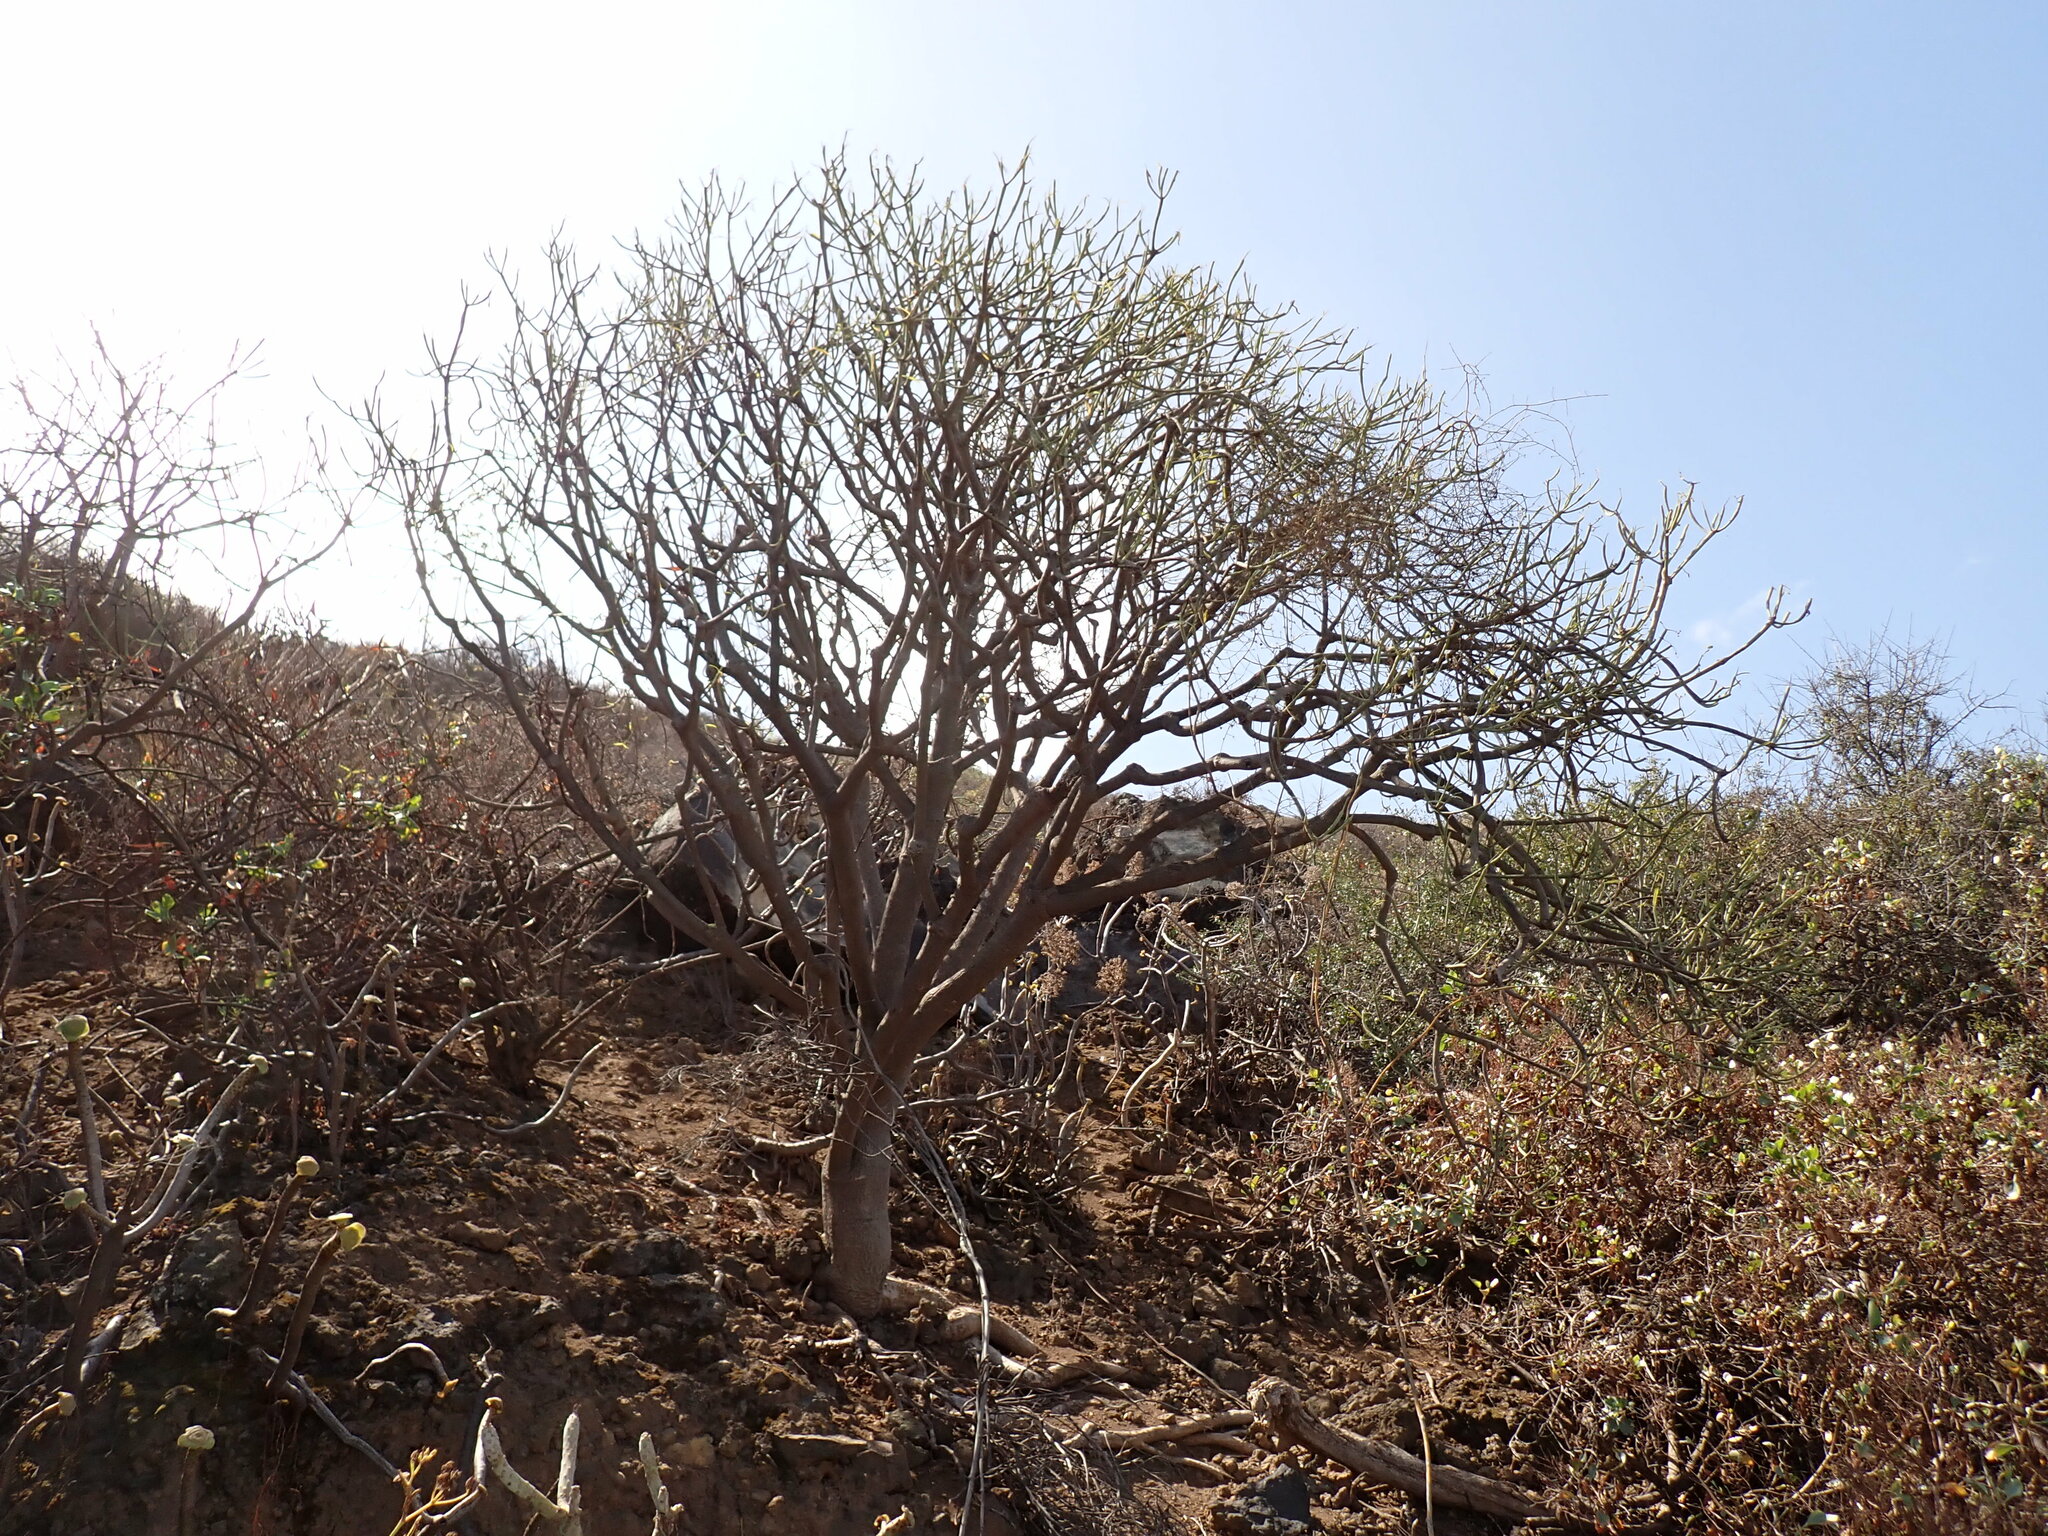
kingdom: Plantae
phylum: Tracheophyta
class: Magnoliopsida
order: Malpighiales
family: Euphorbiaceae
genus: Euphorbia
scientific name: Euphorbia lamarckii
